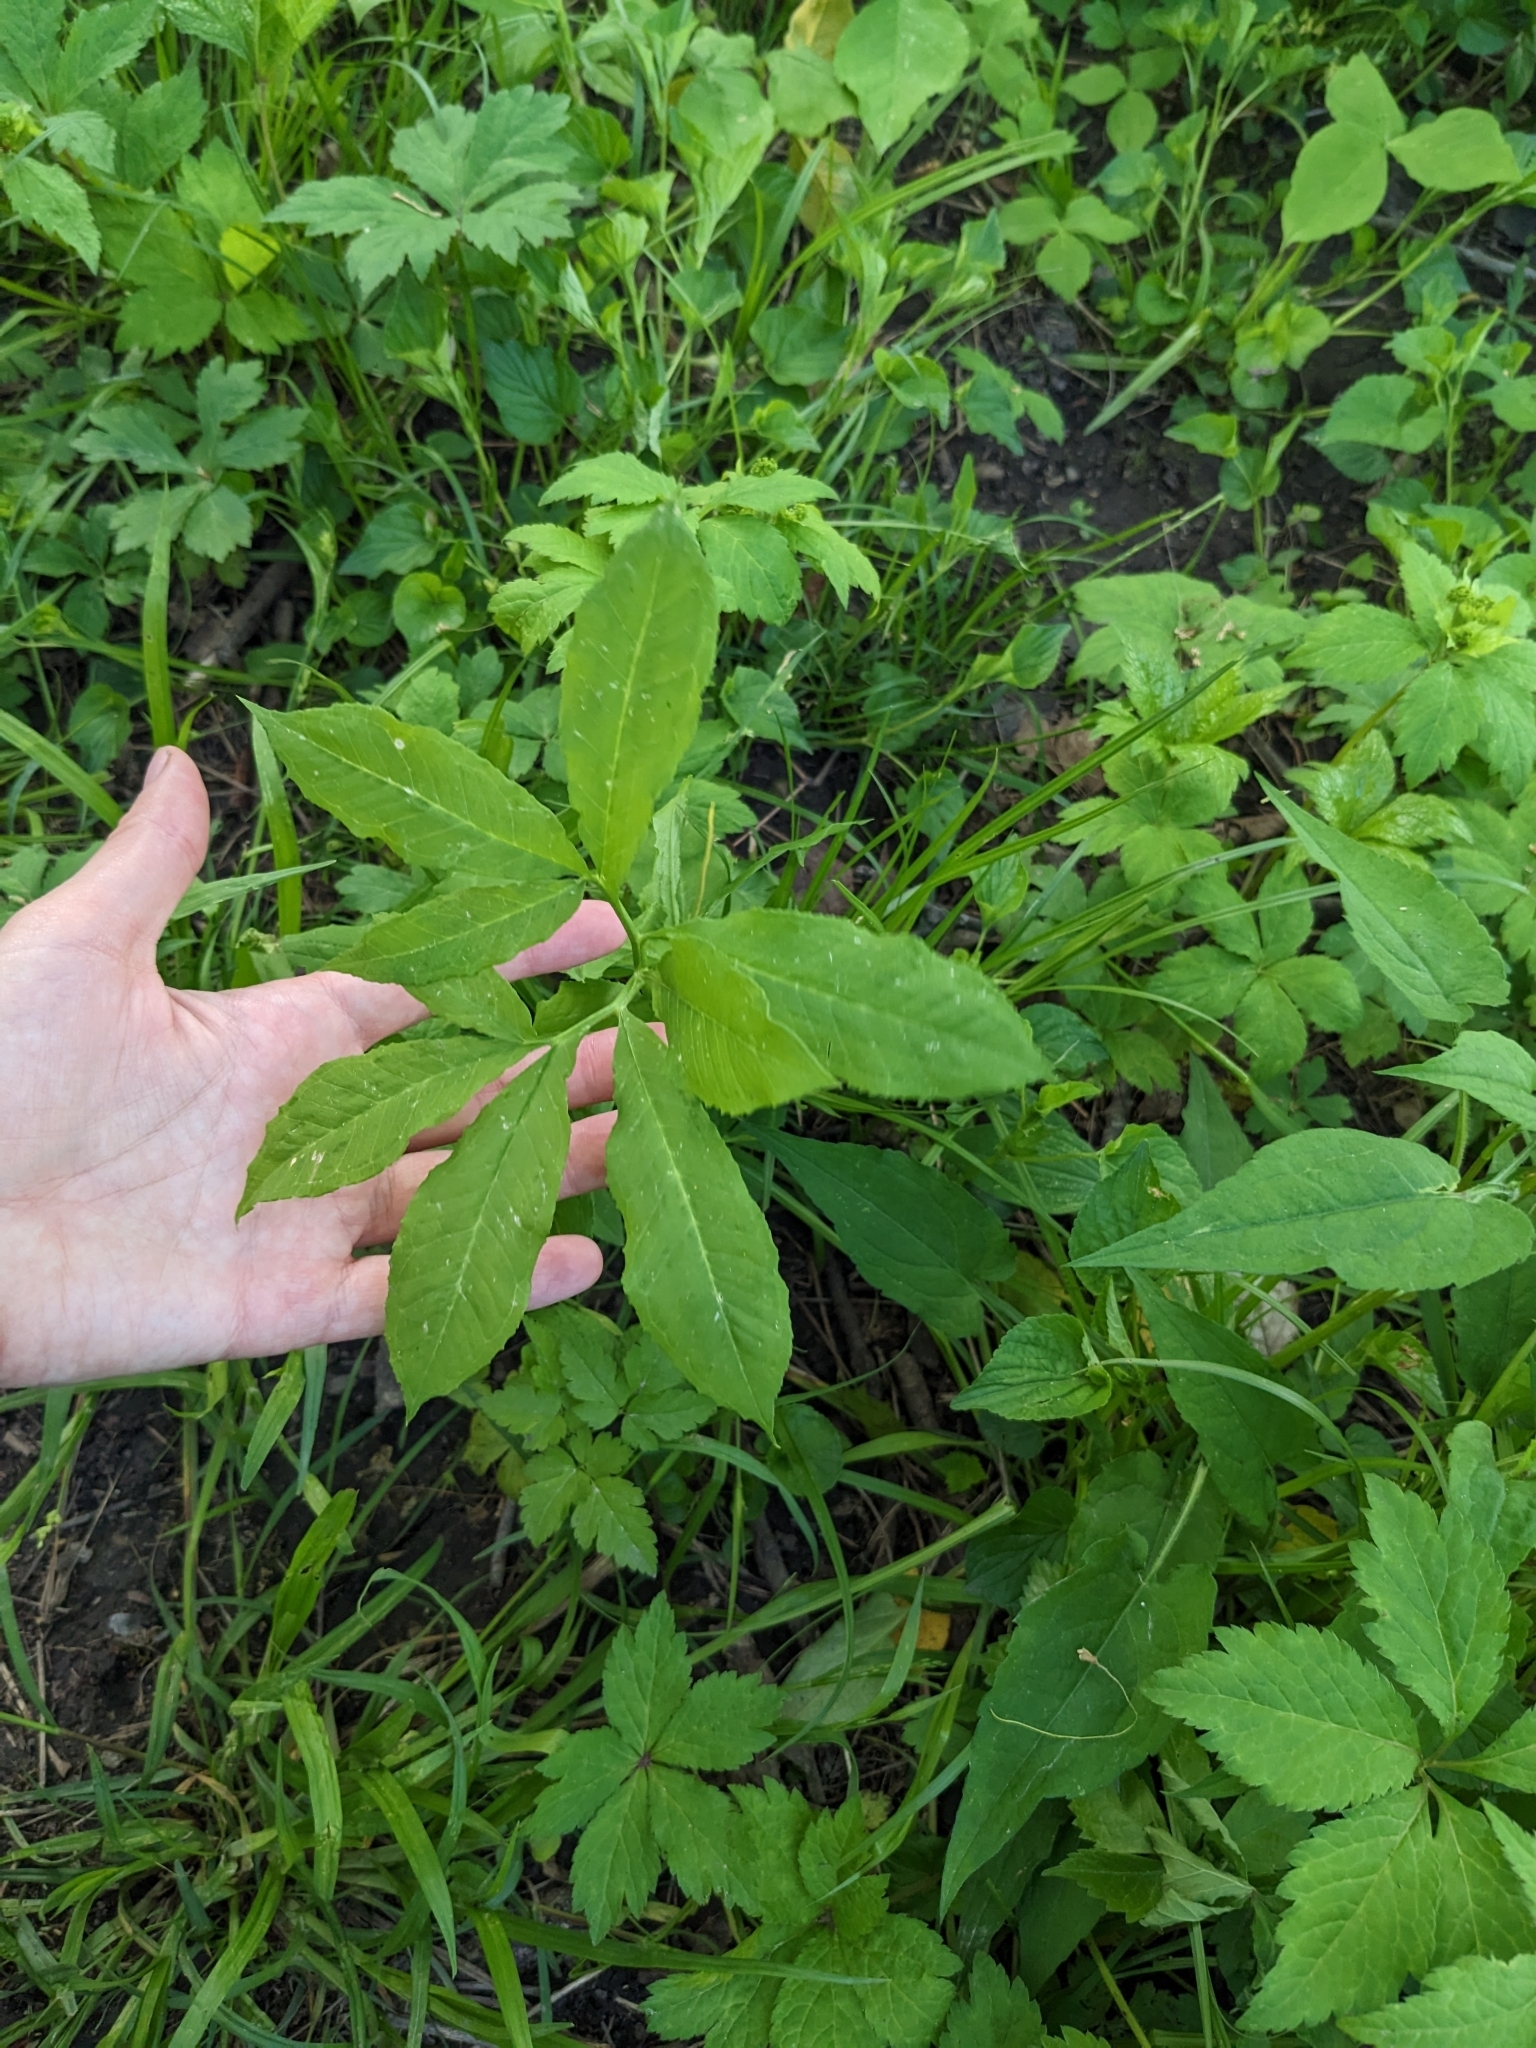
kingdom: Plantae
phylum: Tracheophyta
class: Liliopsida
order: Alismatales
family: Araceae
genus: Arisaema
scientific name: Arisaema dracontium
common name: Dragon-arum
